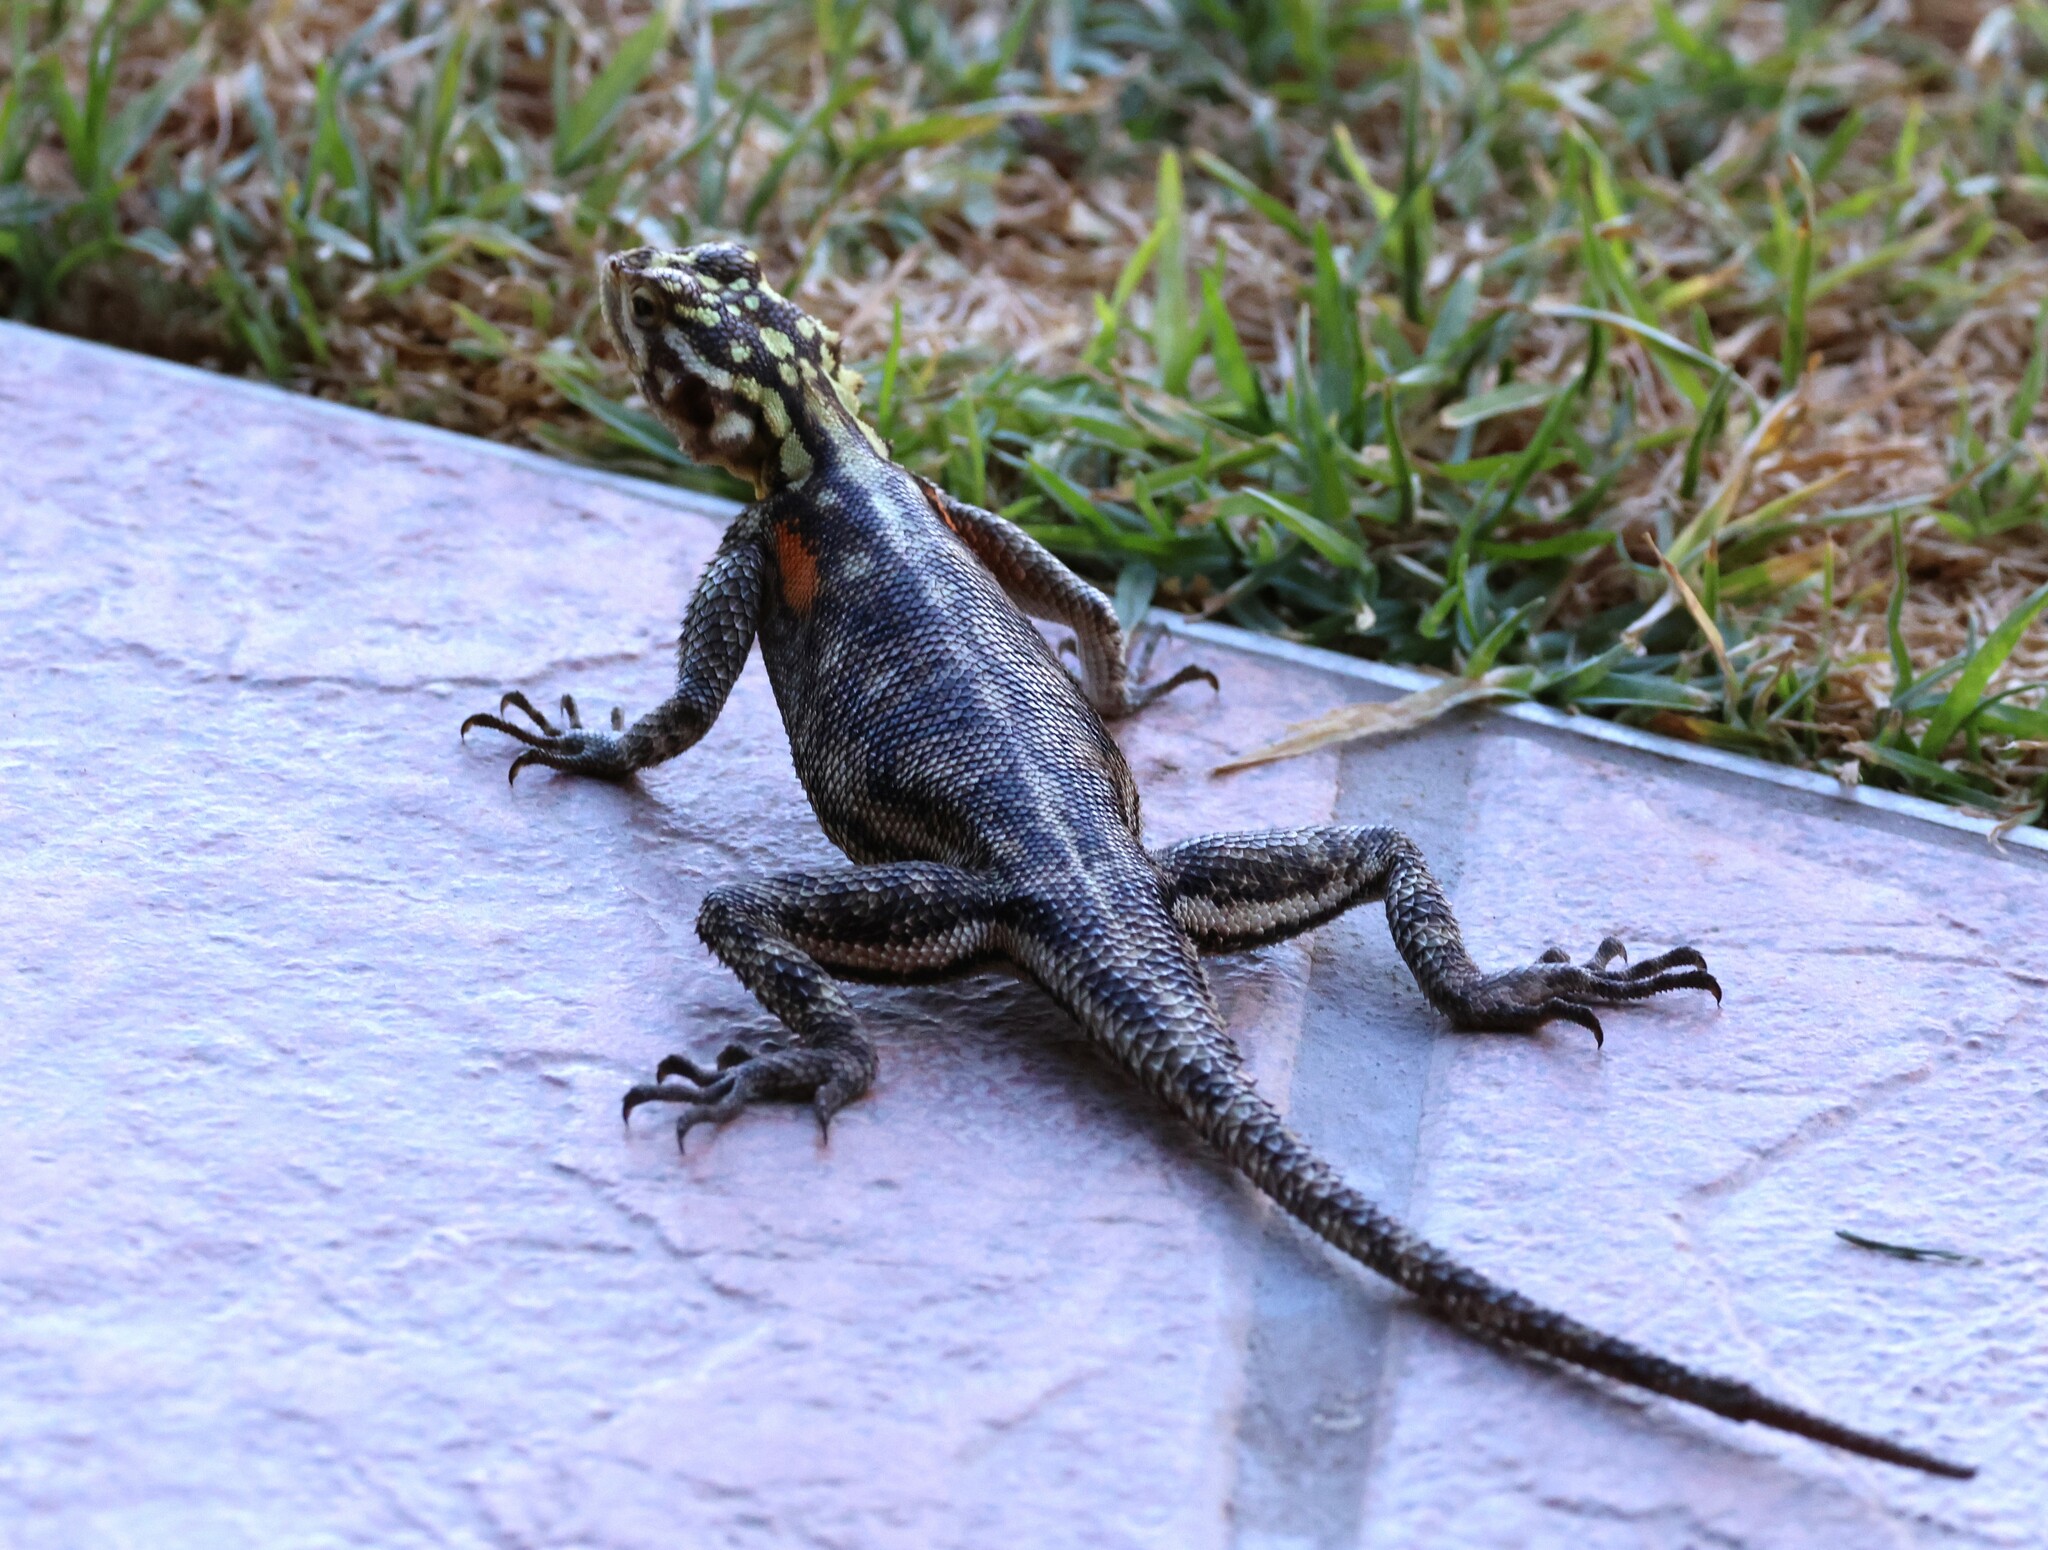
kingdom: Animalia
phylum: Chordata
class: Squamata
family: Agamidae
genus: Agama
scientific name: Agama planiceps
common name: Namib rock agama
